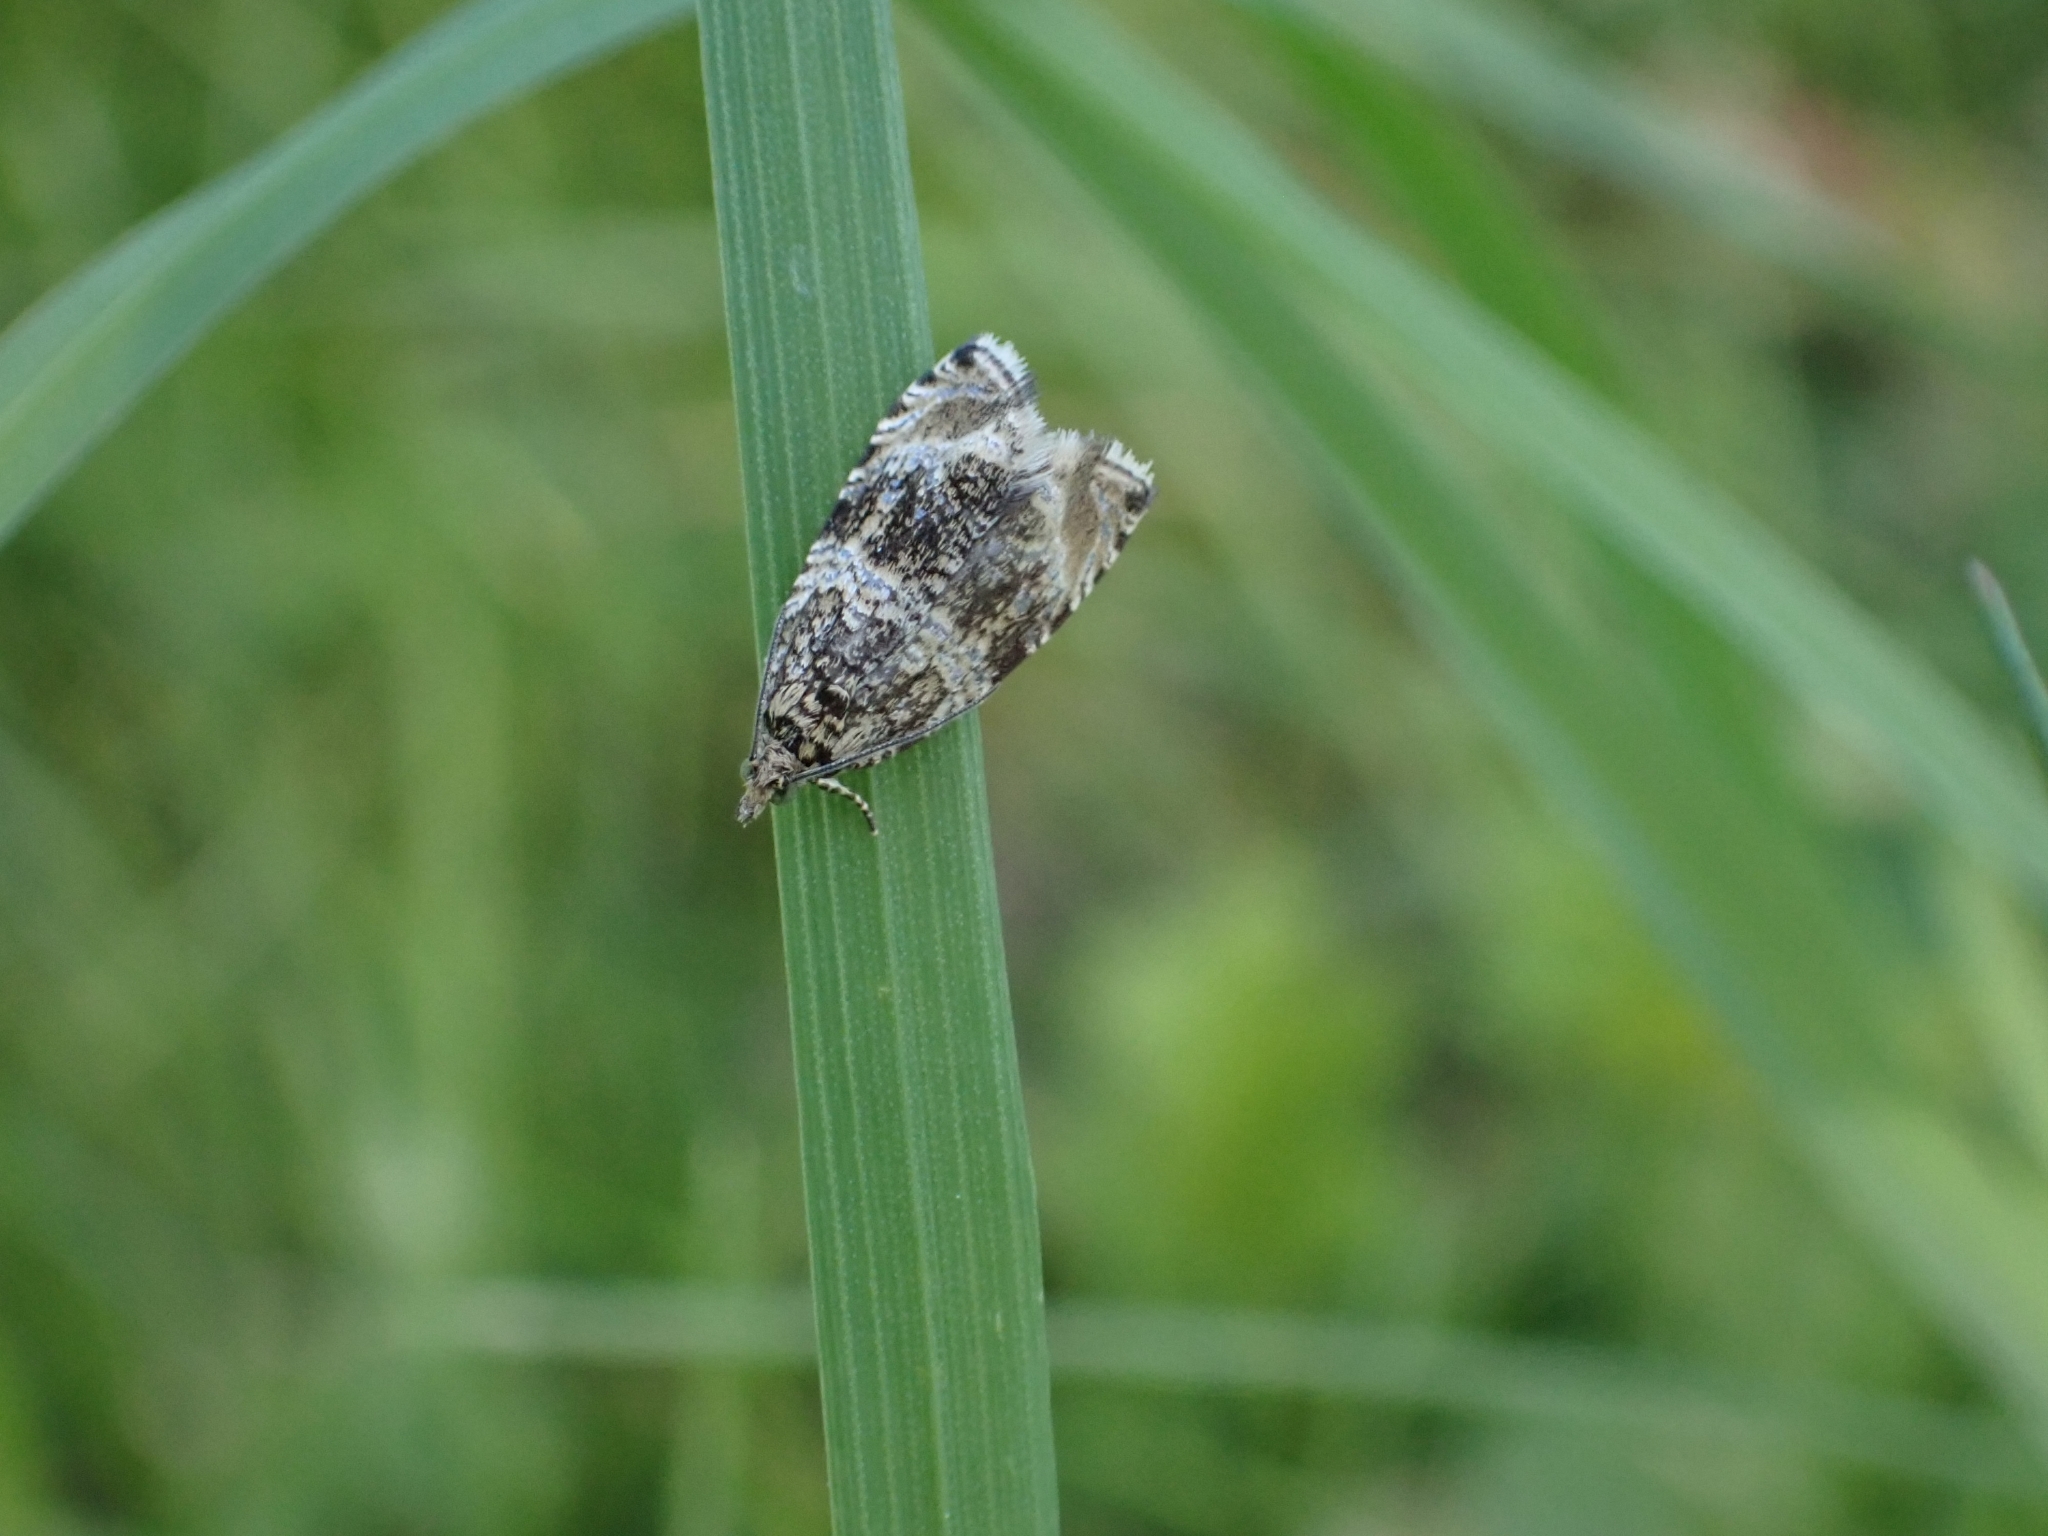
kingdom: Animalia
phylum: Arthropoda
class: Insecta
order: Lepidoptera
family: Tortricidae
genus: Syricoris
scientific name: Syricoris lacunana
